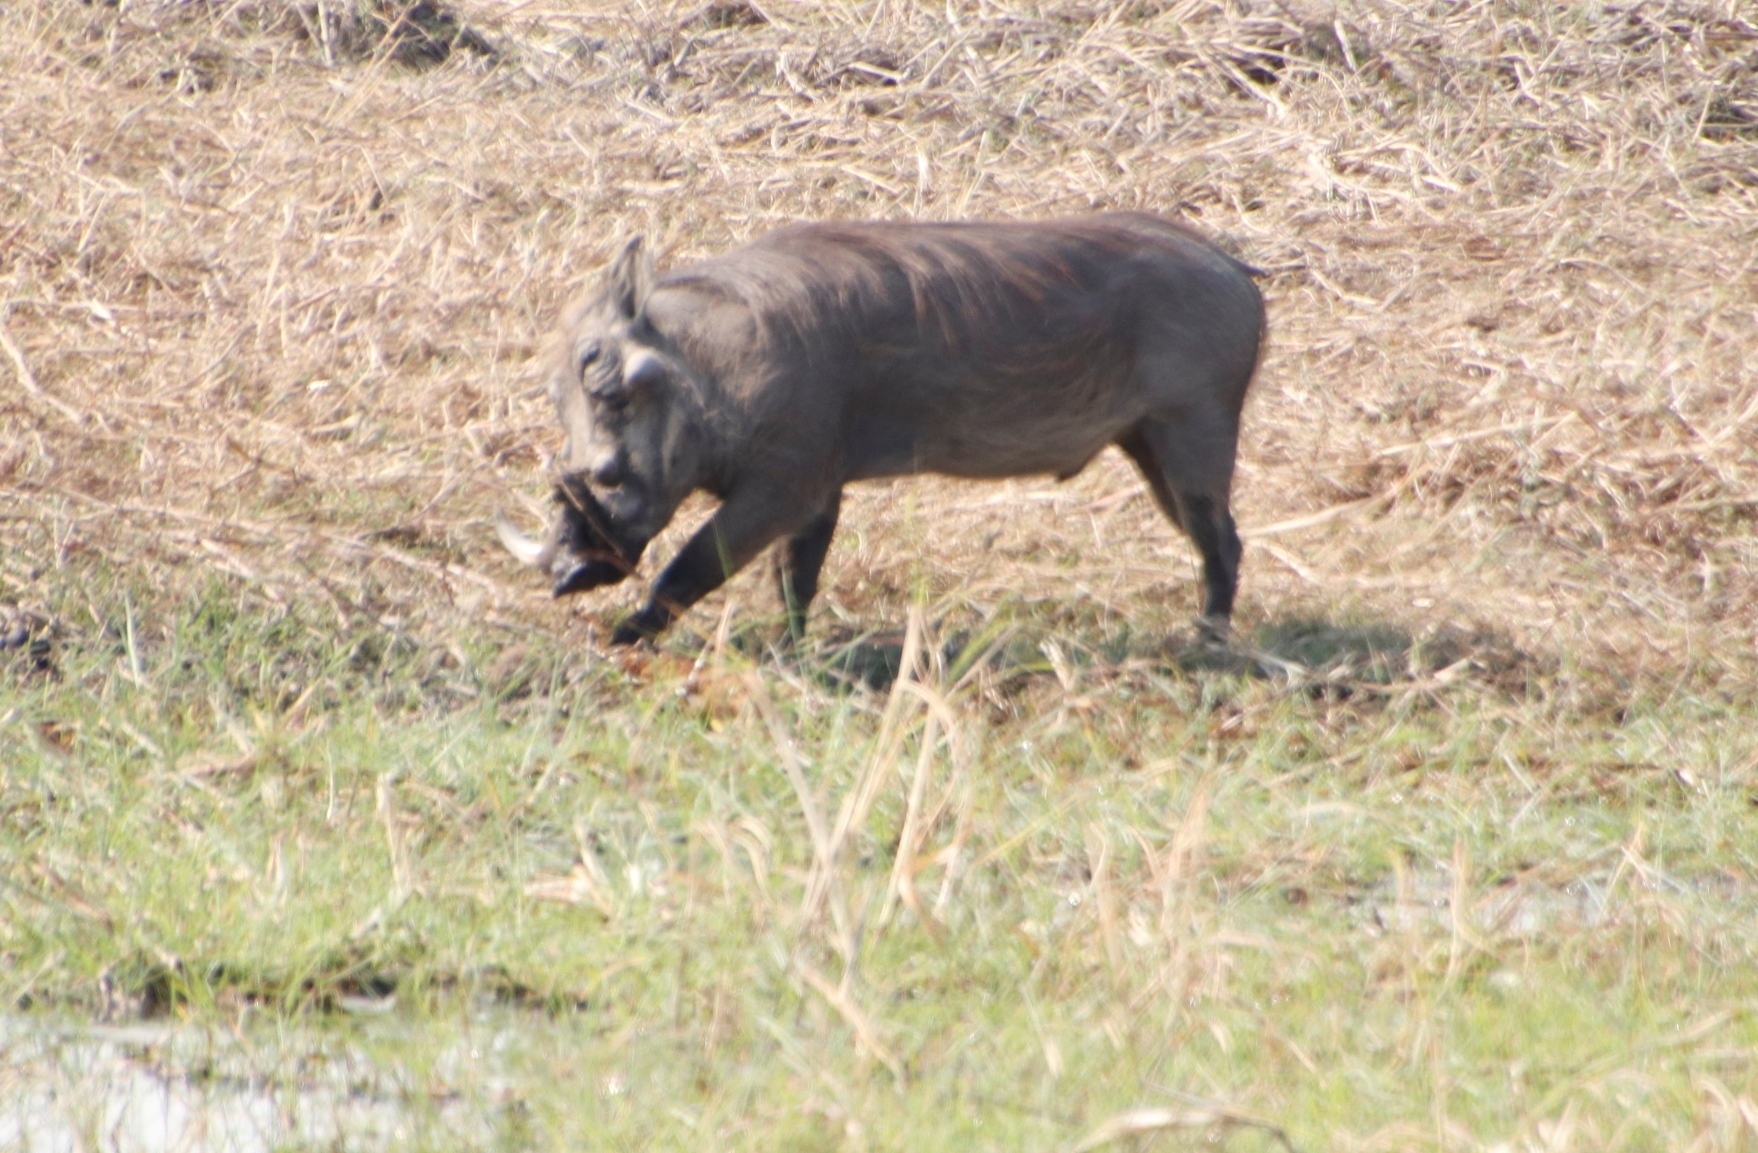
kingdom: Animalia
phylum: Chordata
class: Mammalia
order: Artiodactyla
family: Suidae
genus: Phacochoerus
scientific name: Phacochoerus africanus
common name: Common warthog
